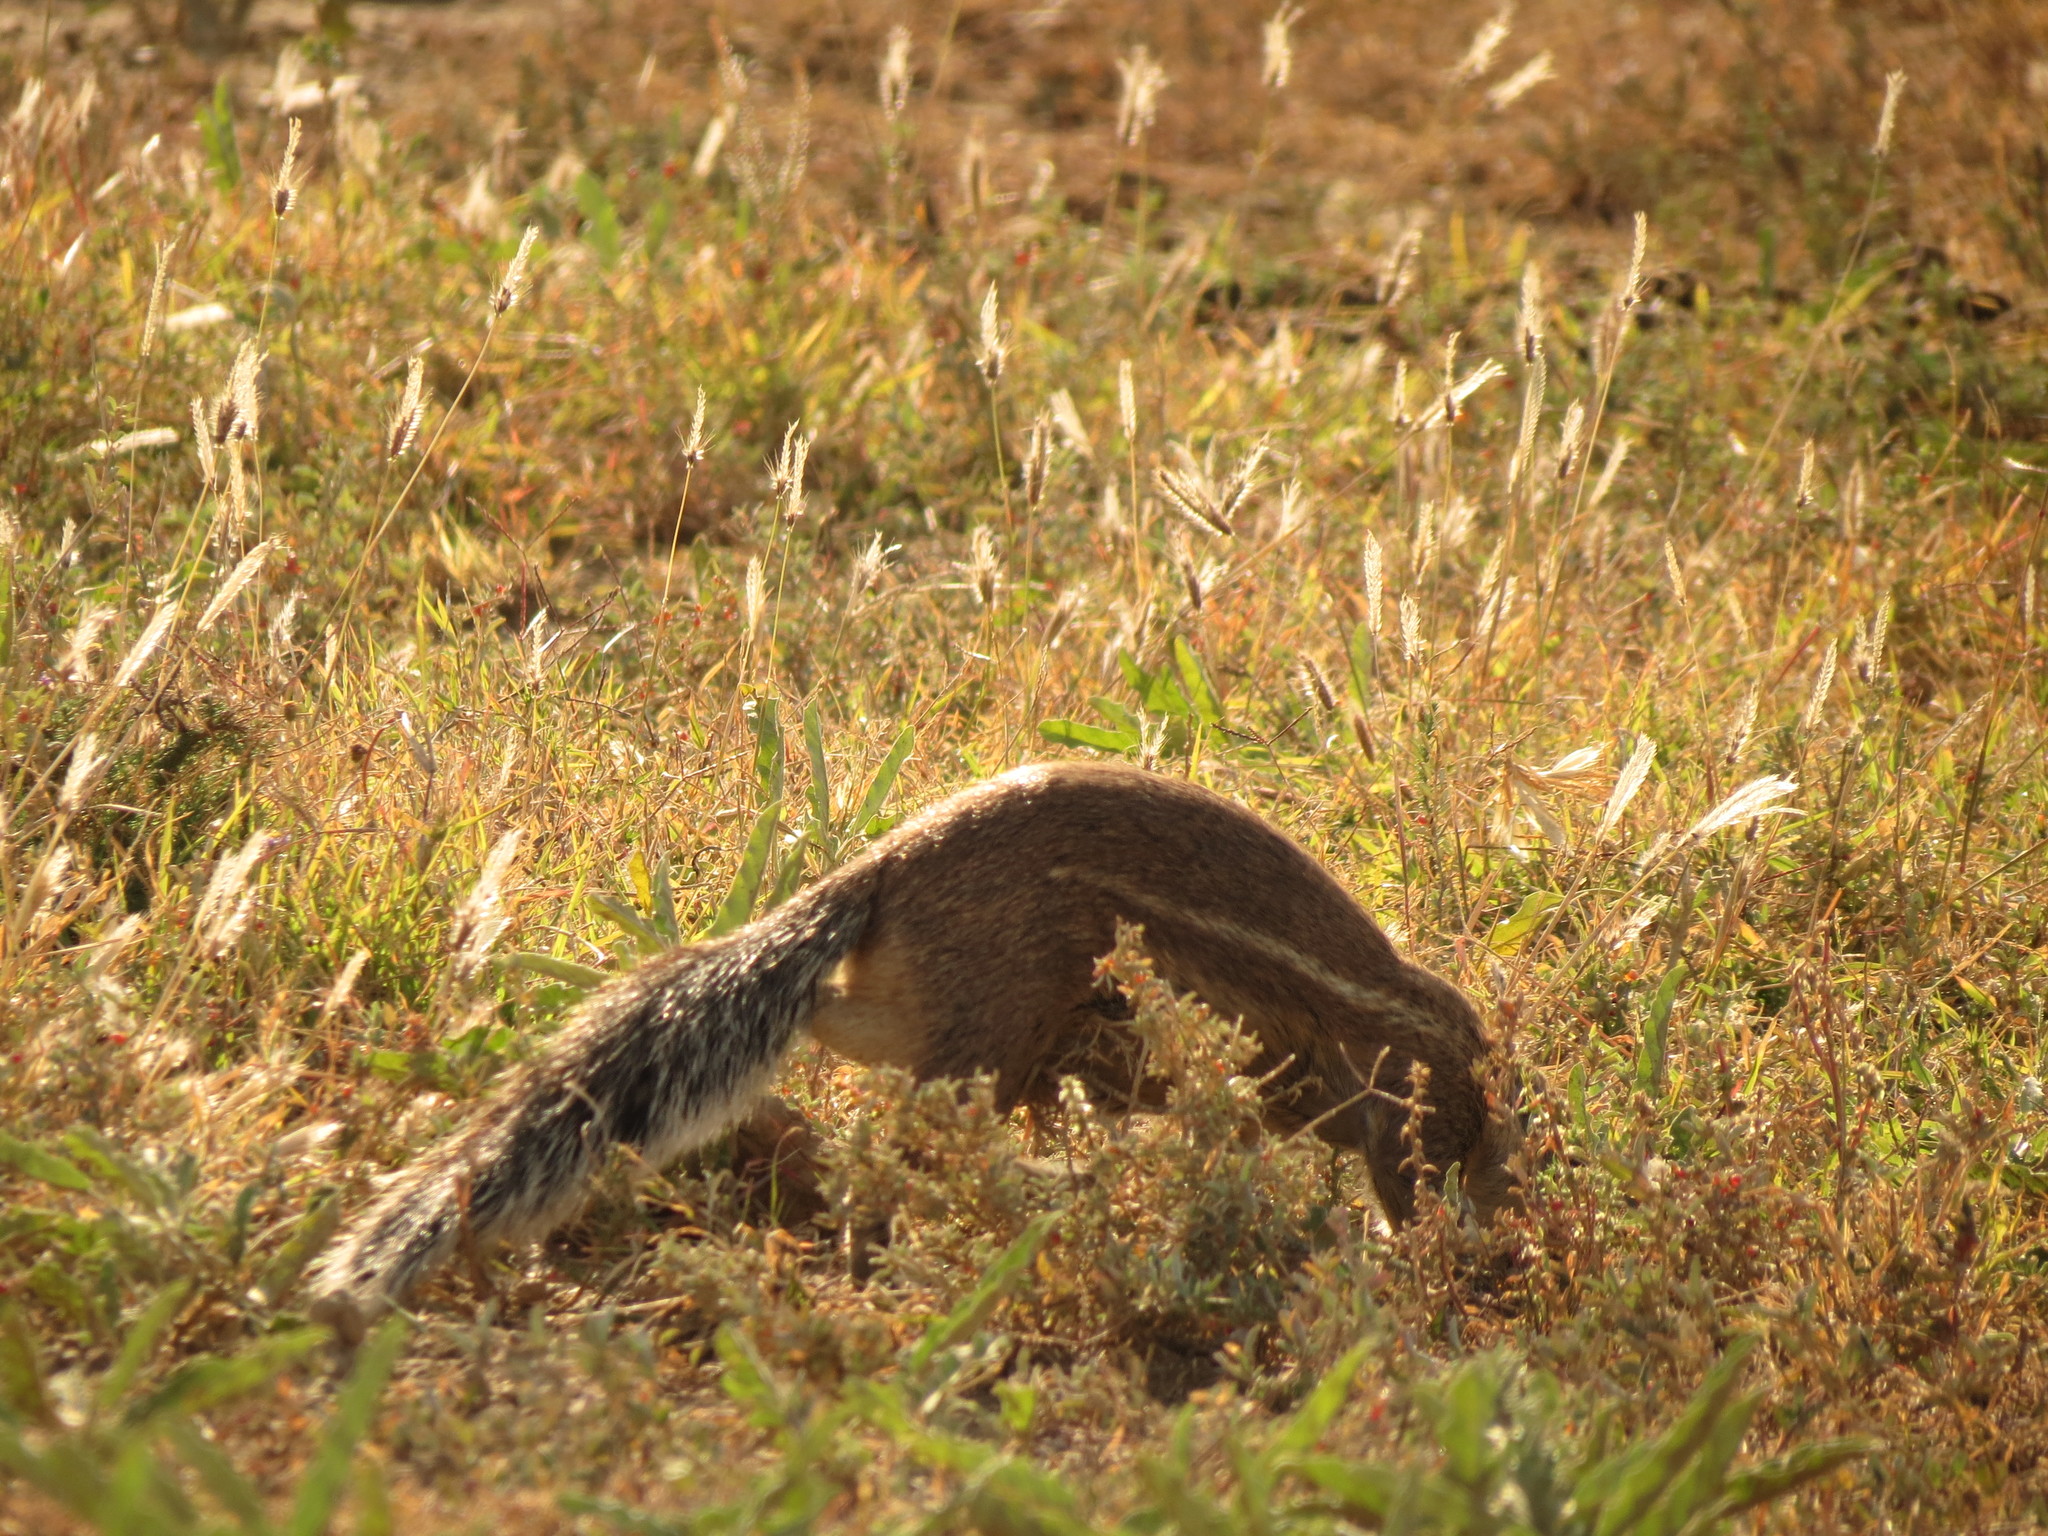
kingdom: Animalia
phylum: Chordata
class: Mammalia
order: Rodentia
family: Sciuridae
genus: Xerus
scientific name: Xerus inauris
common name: South african ground squirrel
